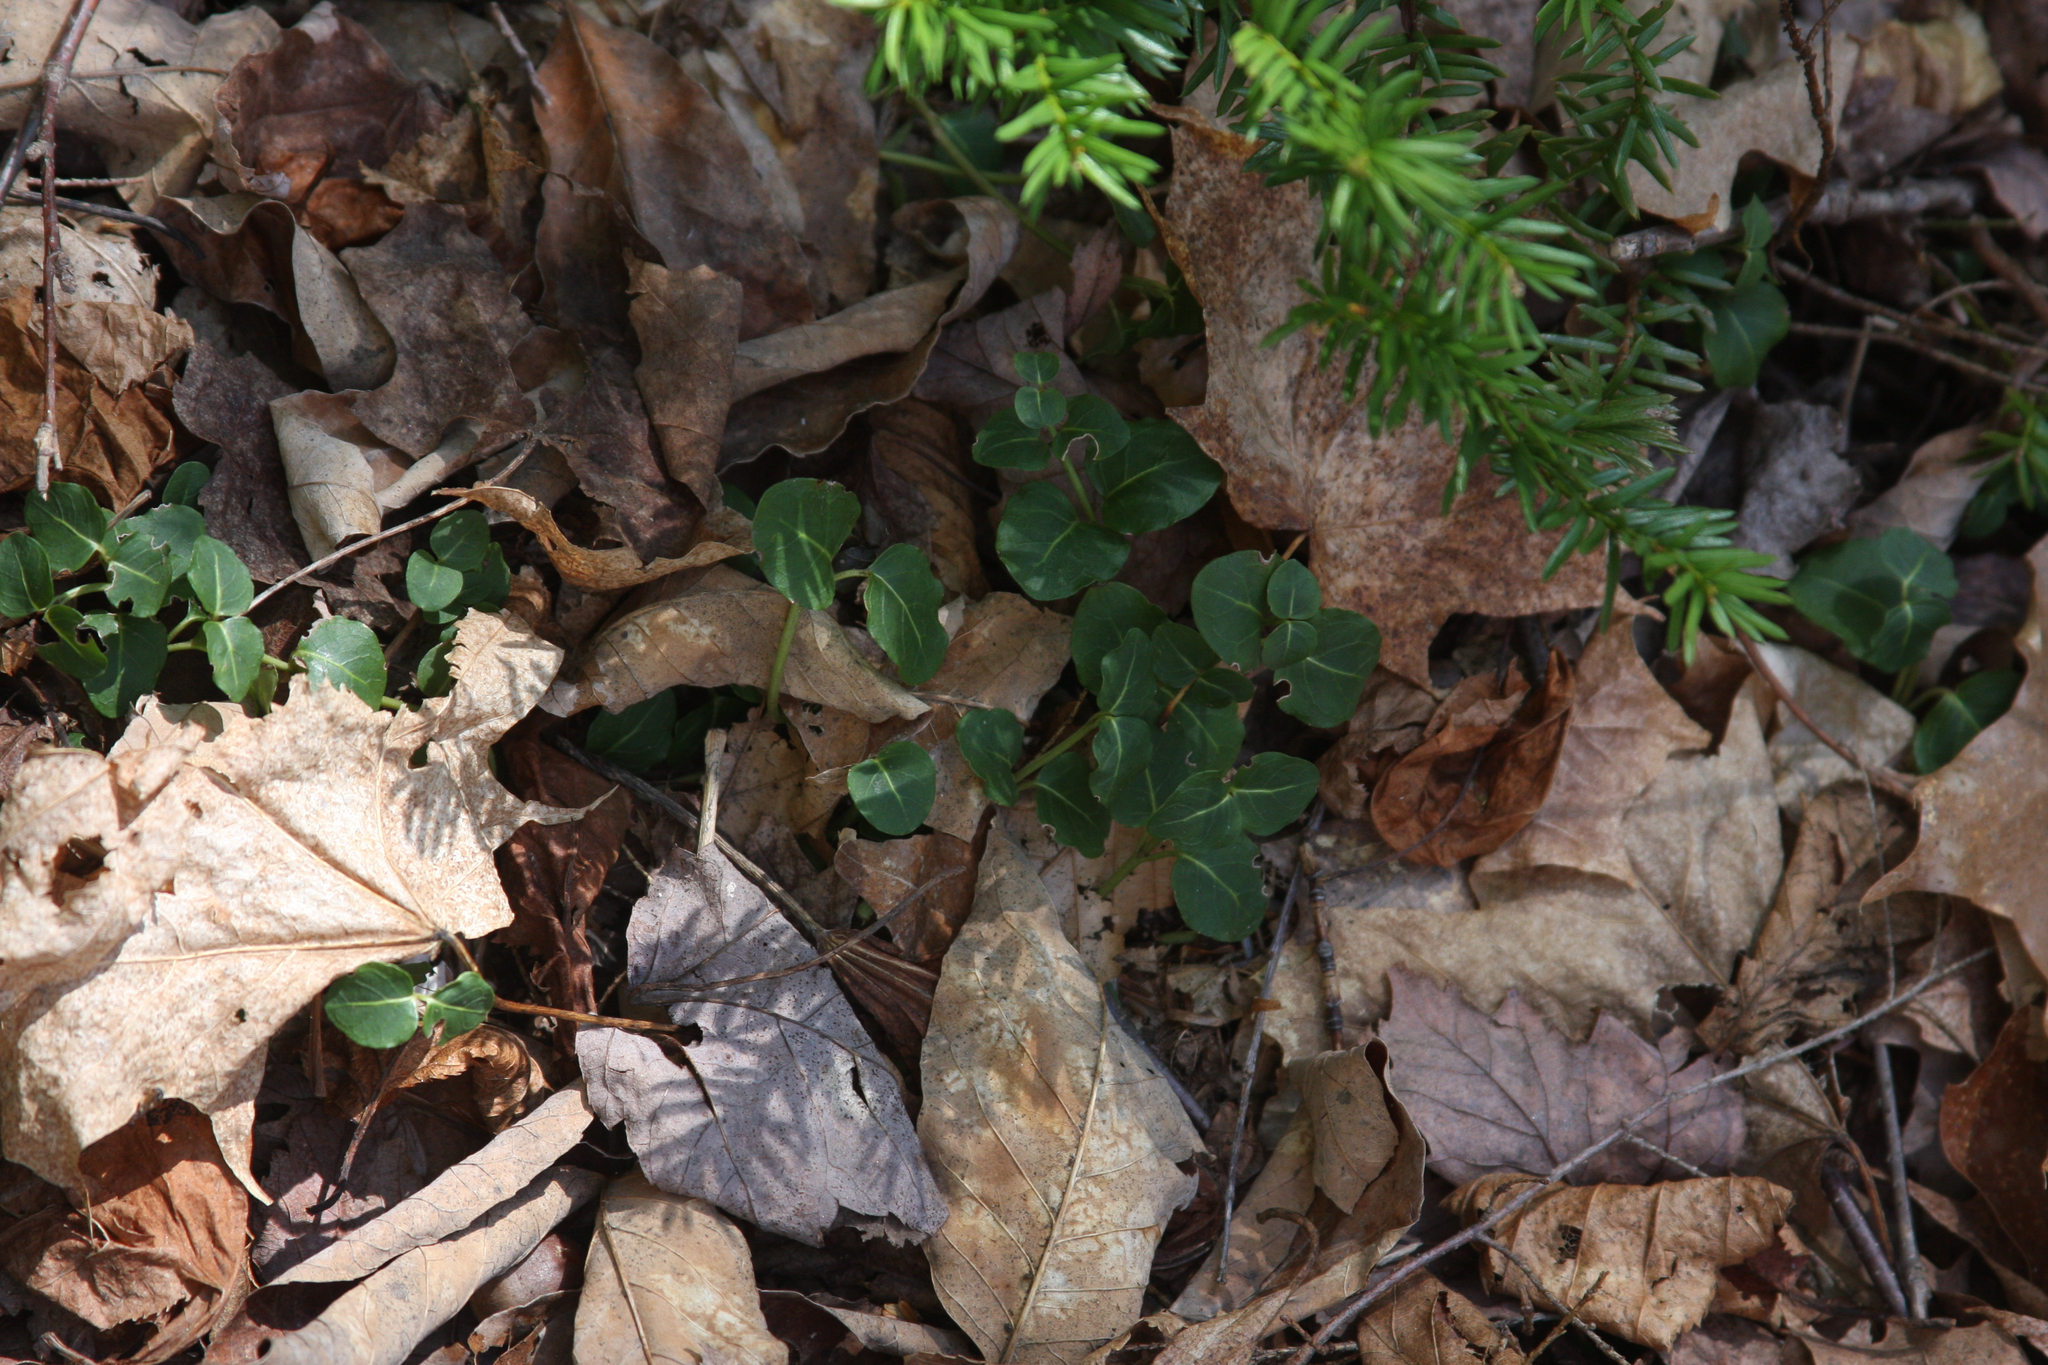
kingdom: Plantae
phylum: Tracheophyta
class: Magnoliopsida
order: Gentianales
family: Rubiaceae
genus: Mitchella
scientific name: Mitchella repens
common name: Partridge-berry
